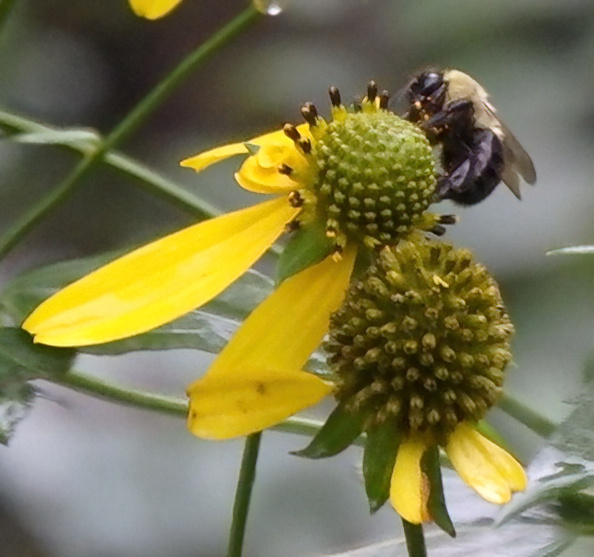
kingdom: Animalia
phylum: Arthropoda
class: Insecta
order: Hymenoptera
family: Apidae
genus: Bombus
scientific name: Bombus impatiens
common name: Common eastern bumble bee
